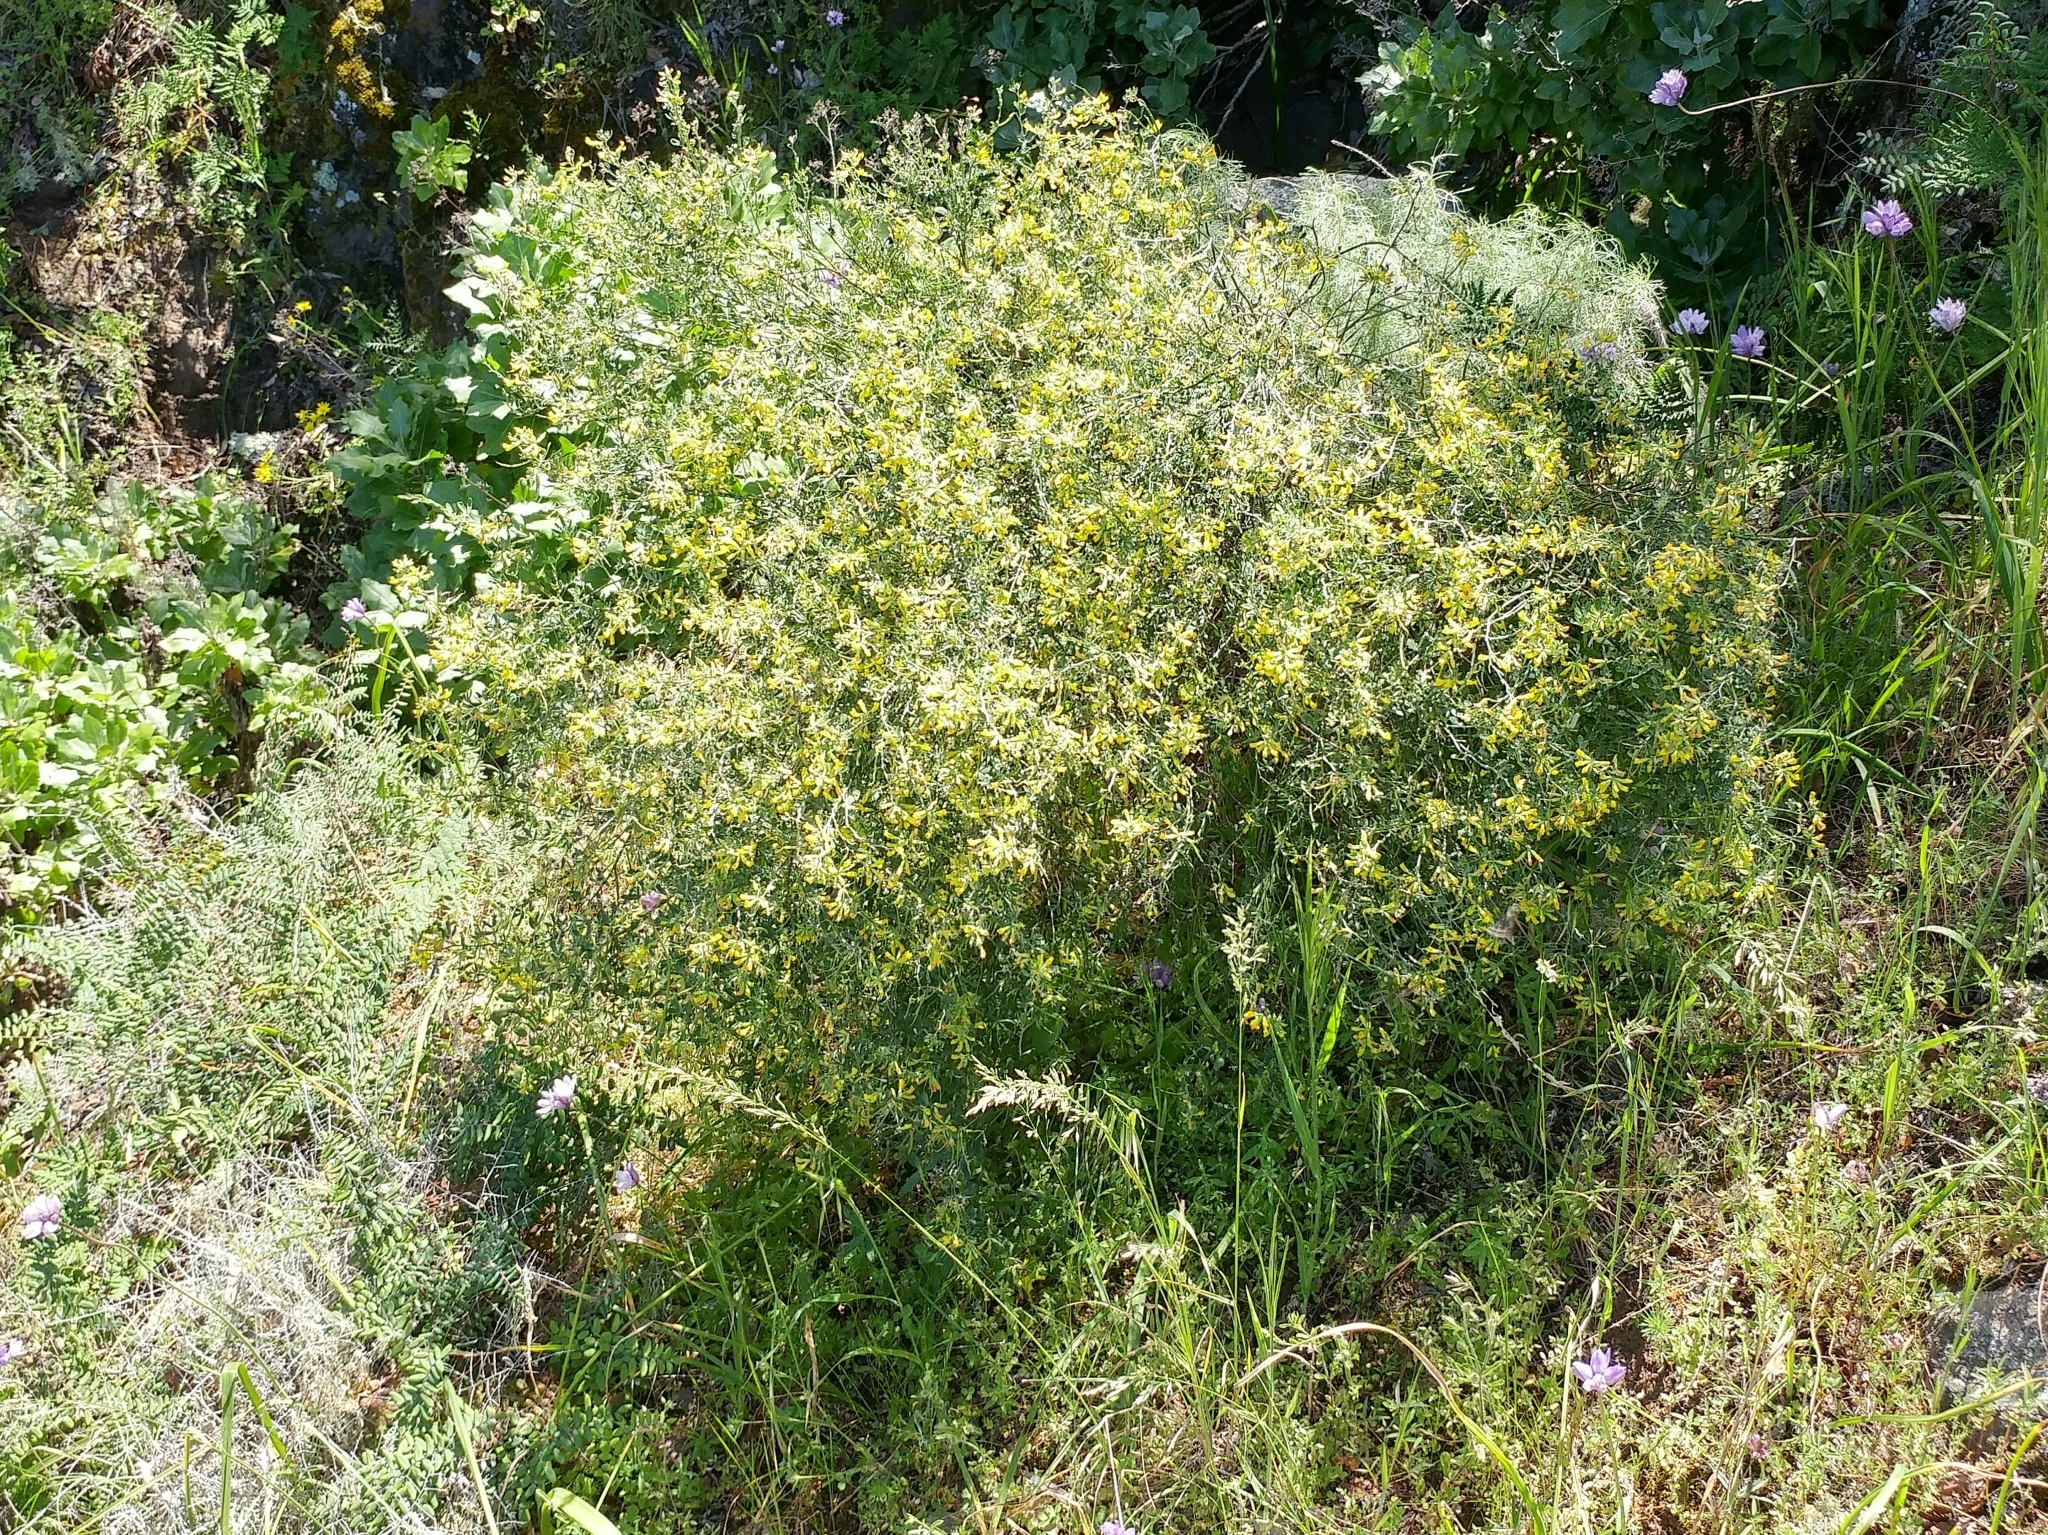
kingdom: Plantae
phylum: Tracheophyta
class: Magnoliopsida
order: Fabales
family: Fabaceae
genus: Acmispon
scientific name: Acmispon dendroideus
